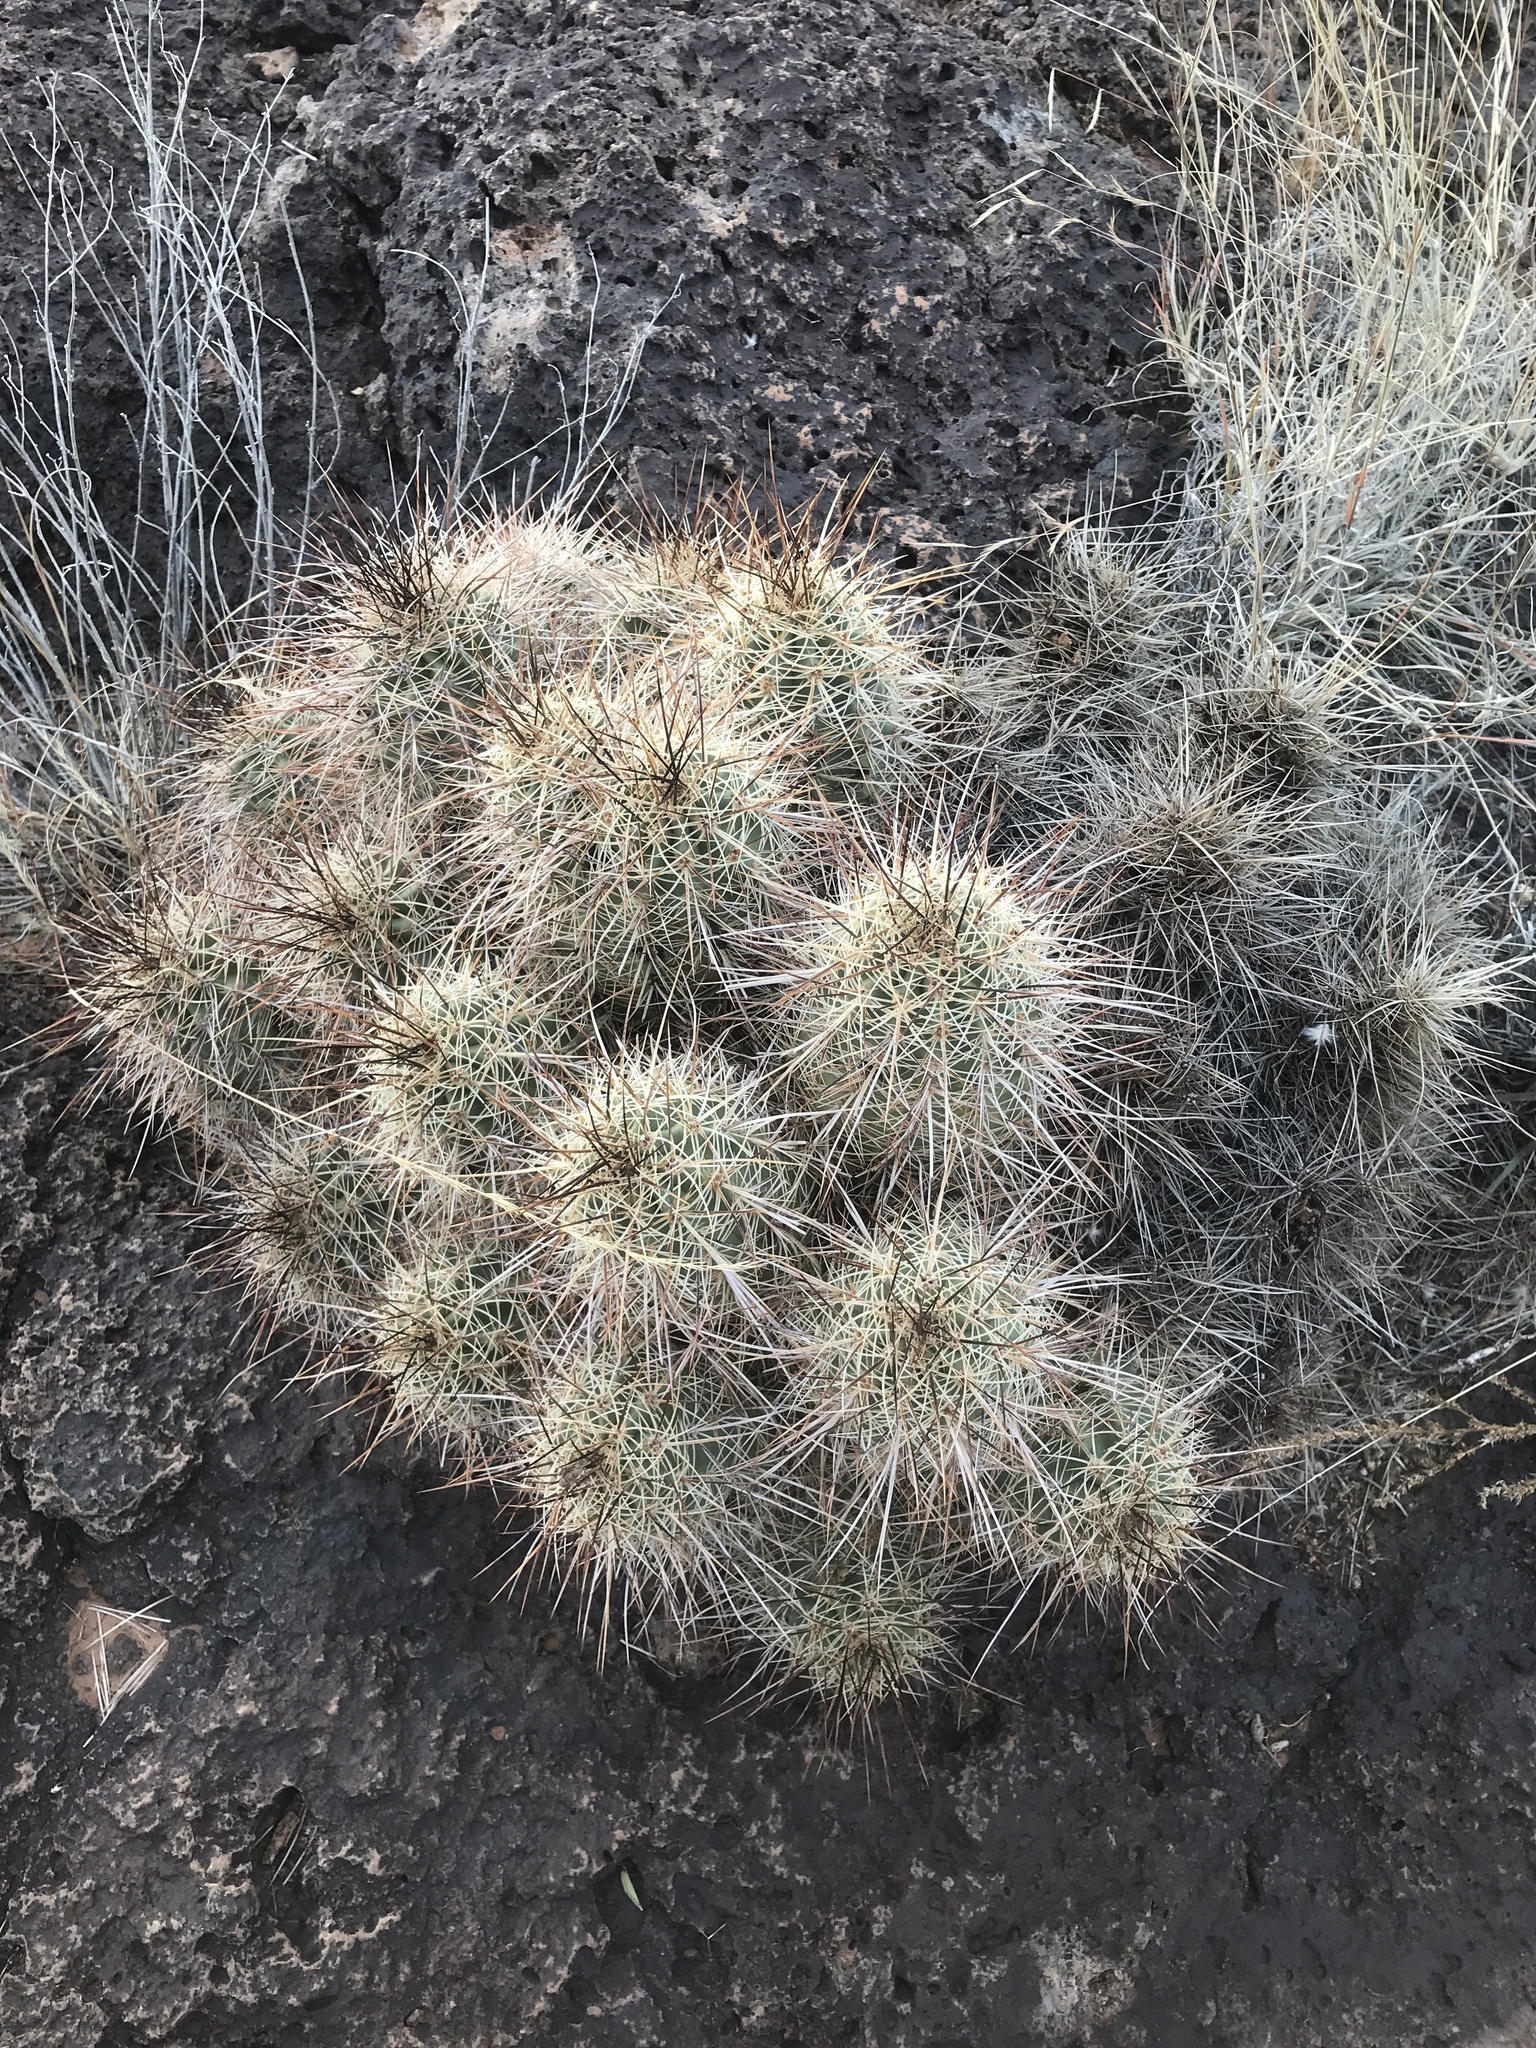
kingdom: Plantae
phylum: Tracheophyta
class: Magnoliopsida
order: Caryophyllales
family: Cactaceae
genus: Echinocereus
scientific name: Echinocereus coccineus
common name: Scarlet hedgehog cactus
